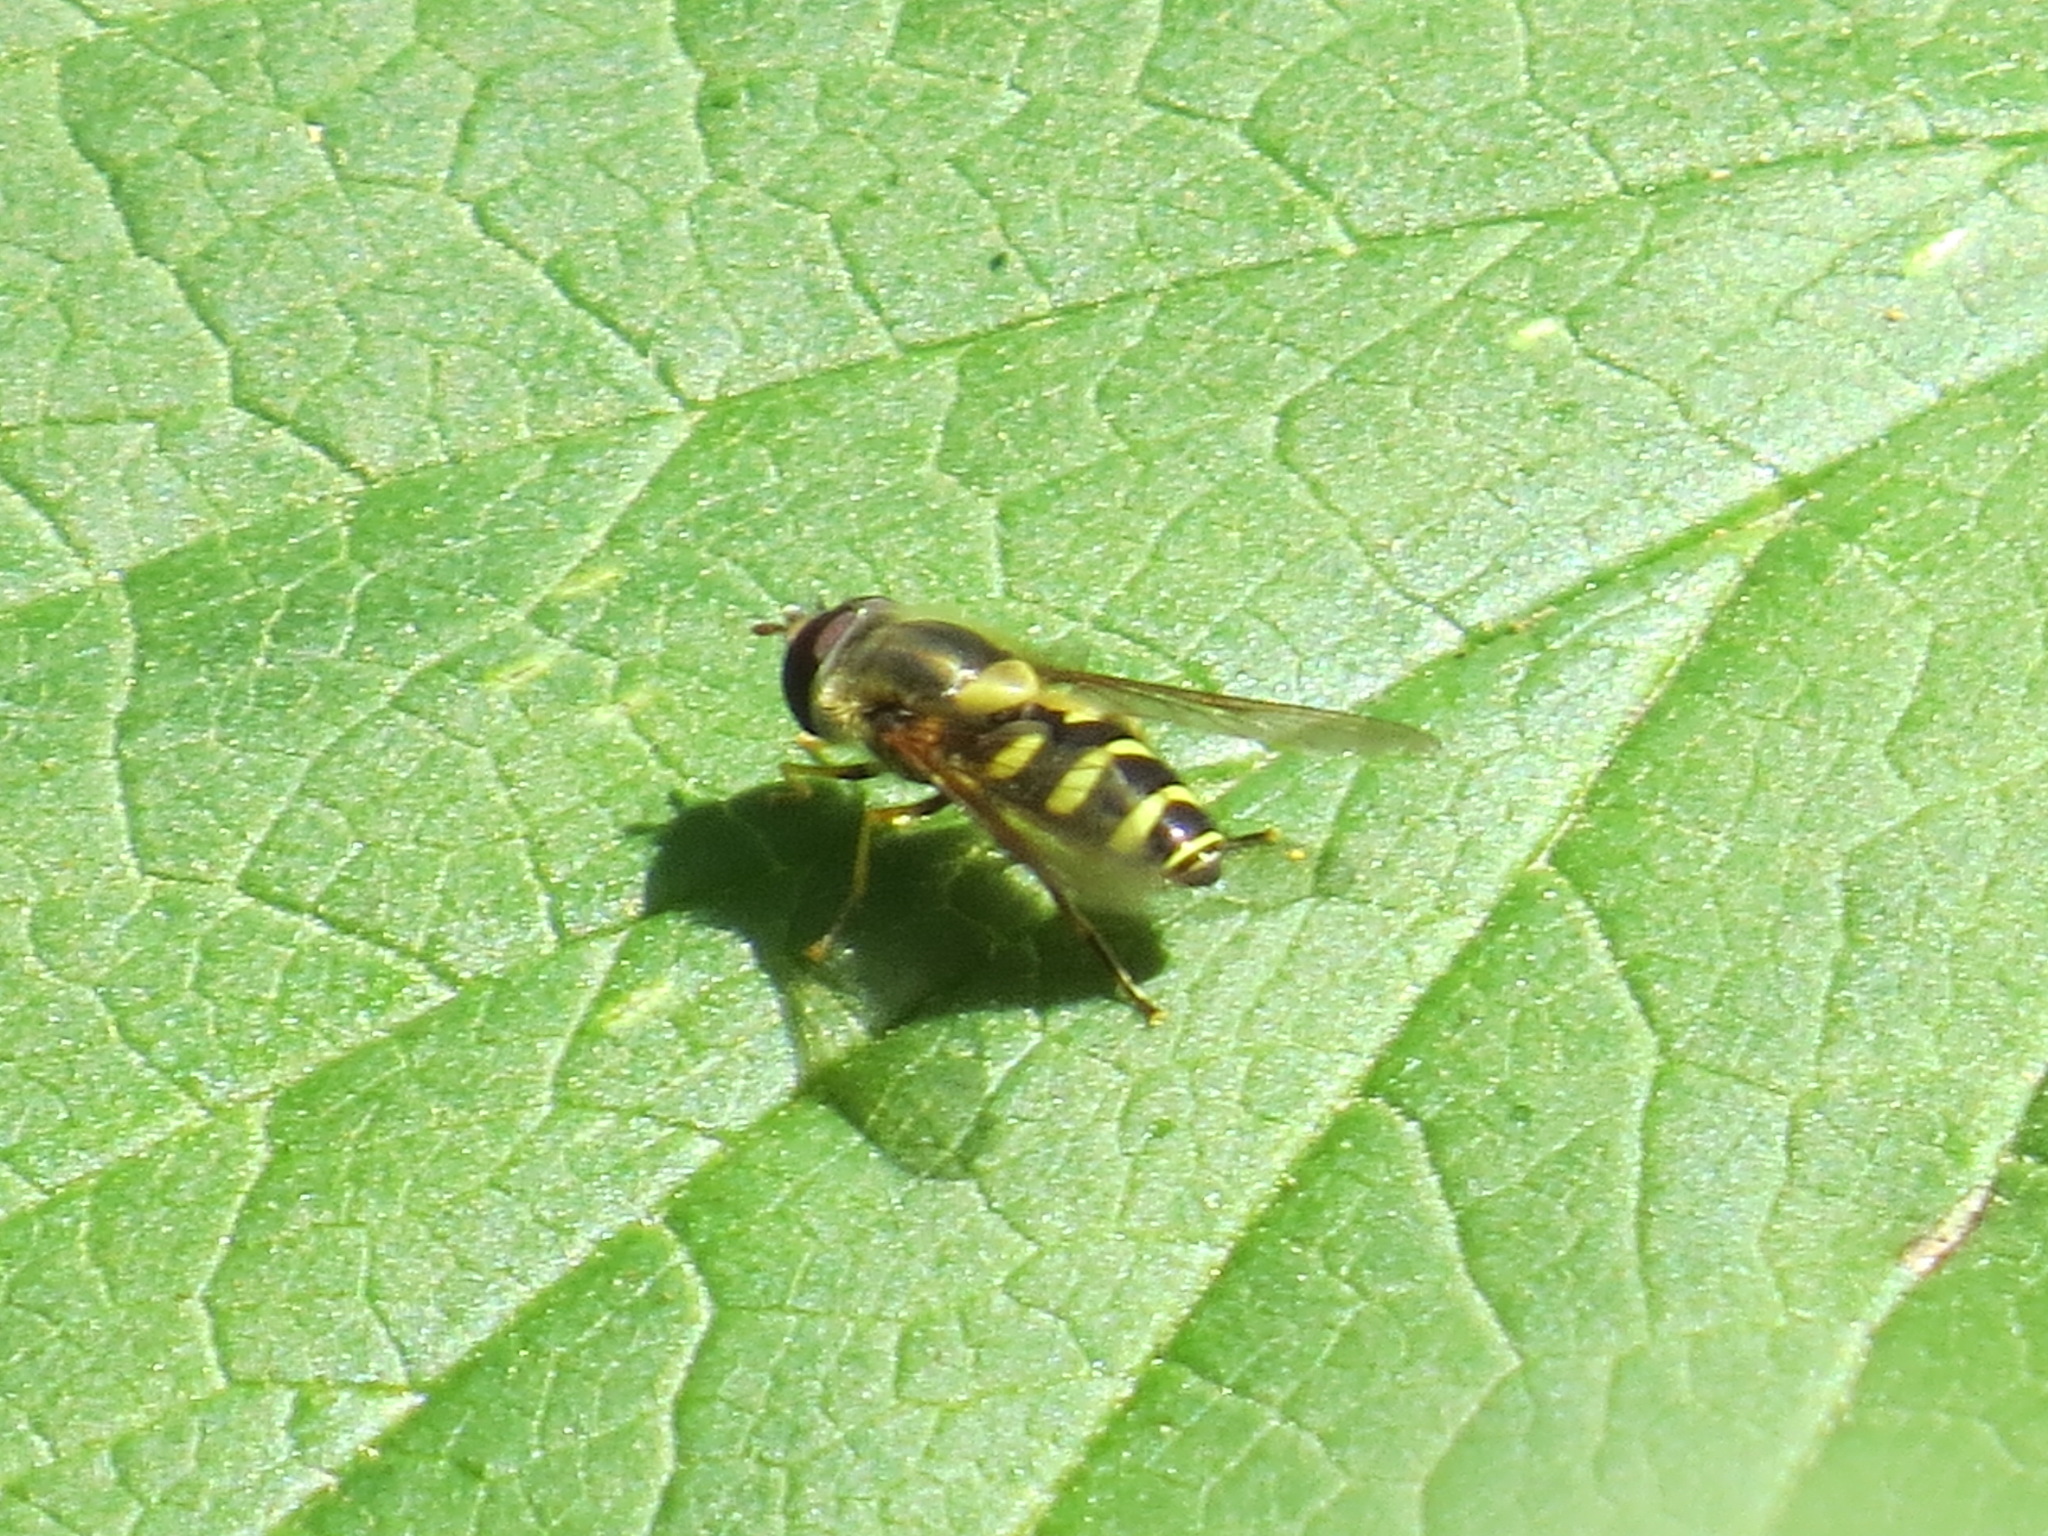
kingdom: Animalia
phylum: Arthropoda
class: Insecta
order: Diptera
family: Syrphidae
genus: Syrphus
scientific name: Syrphus opinator
